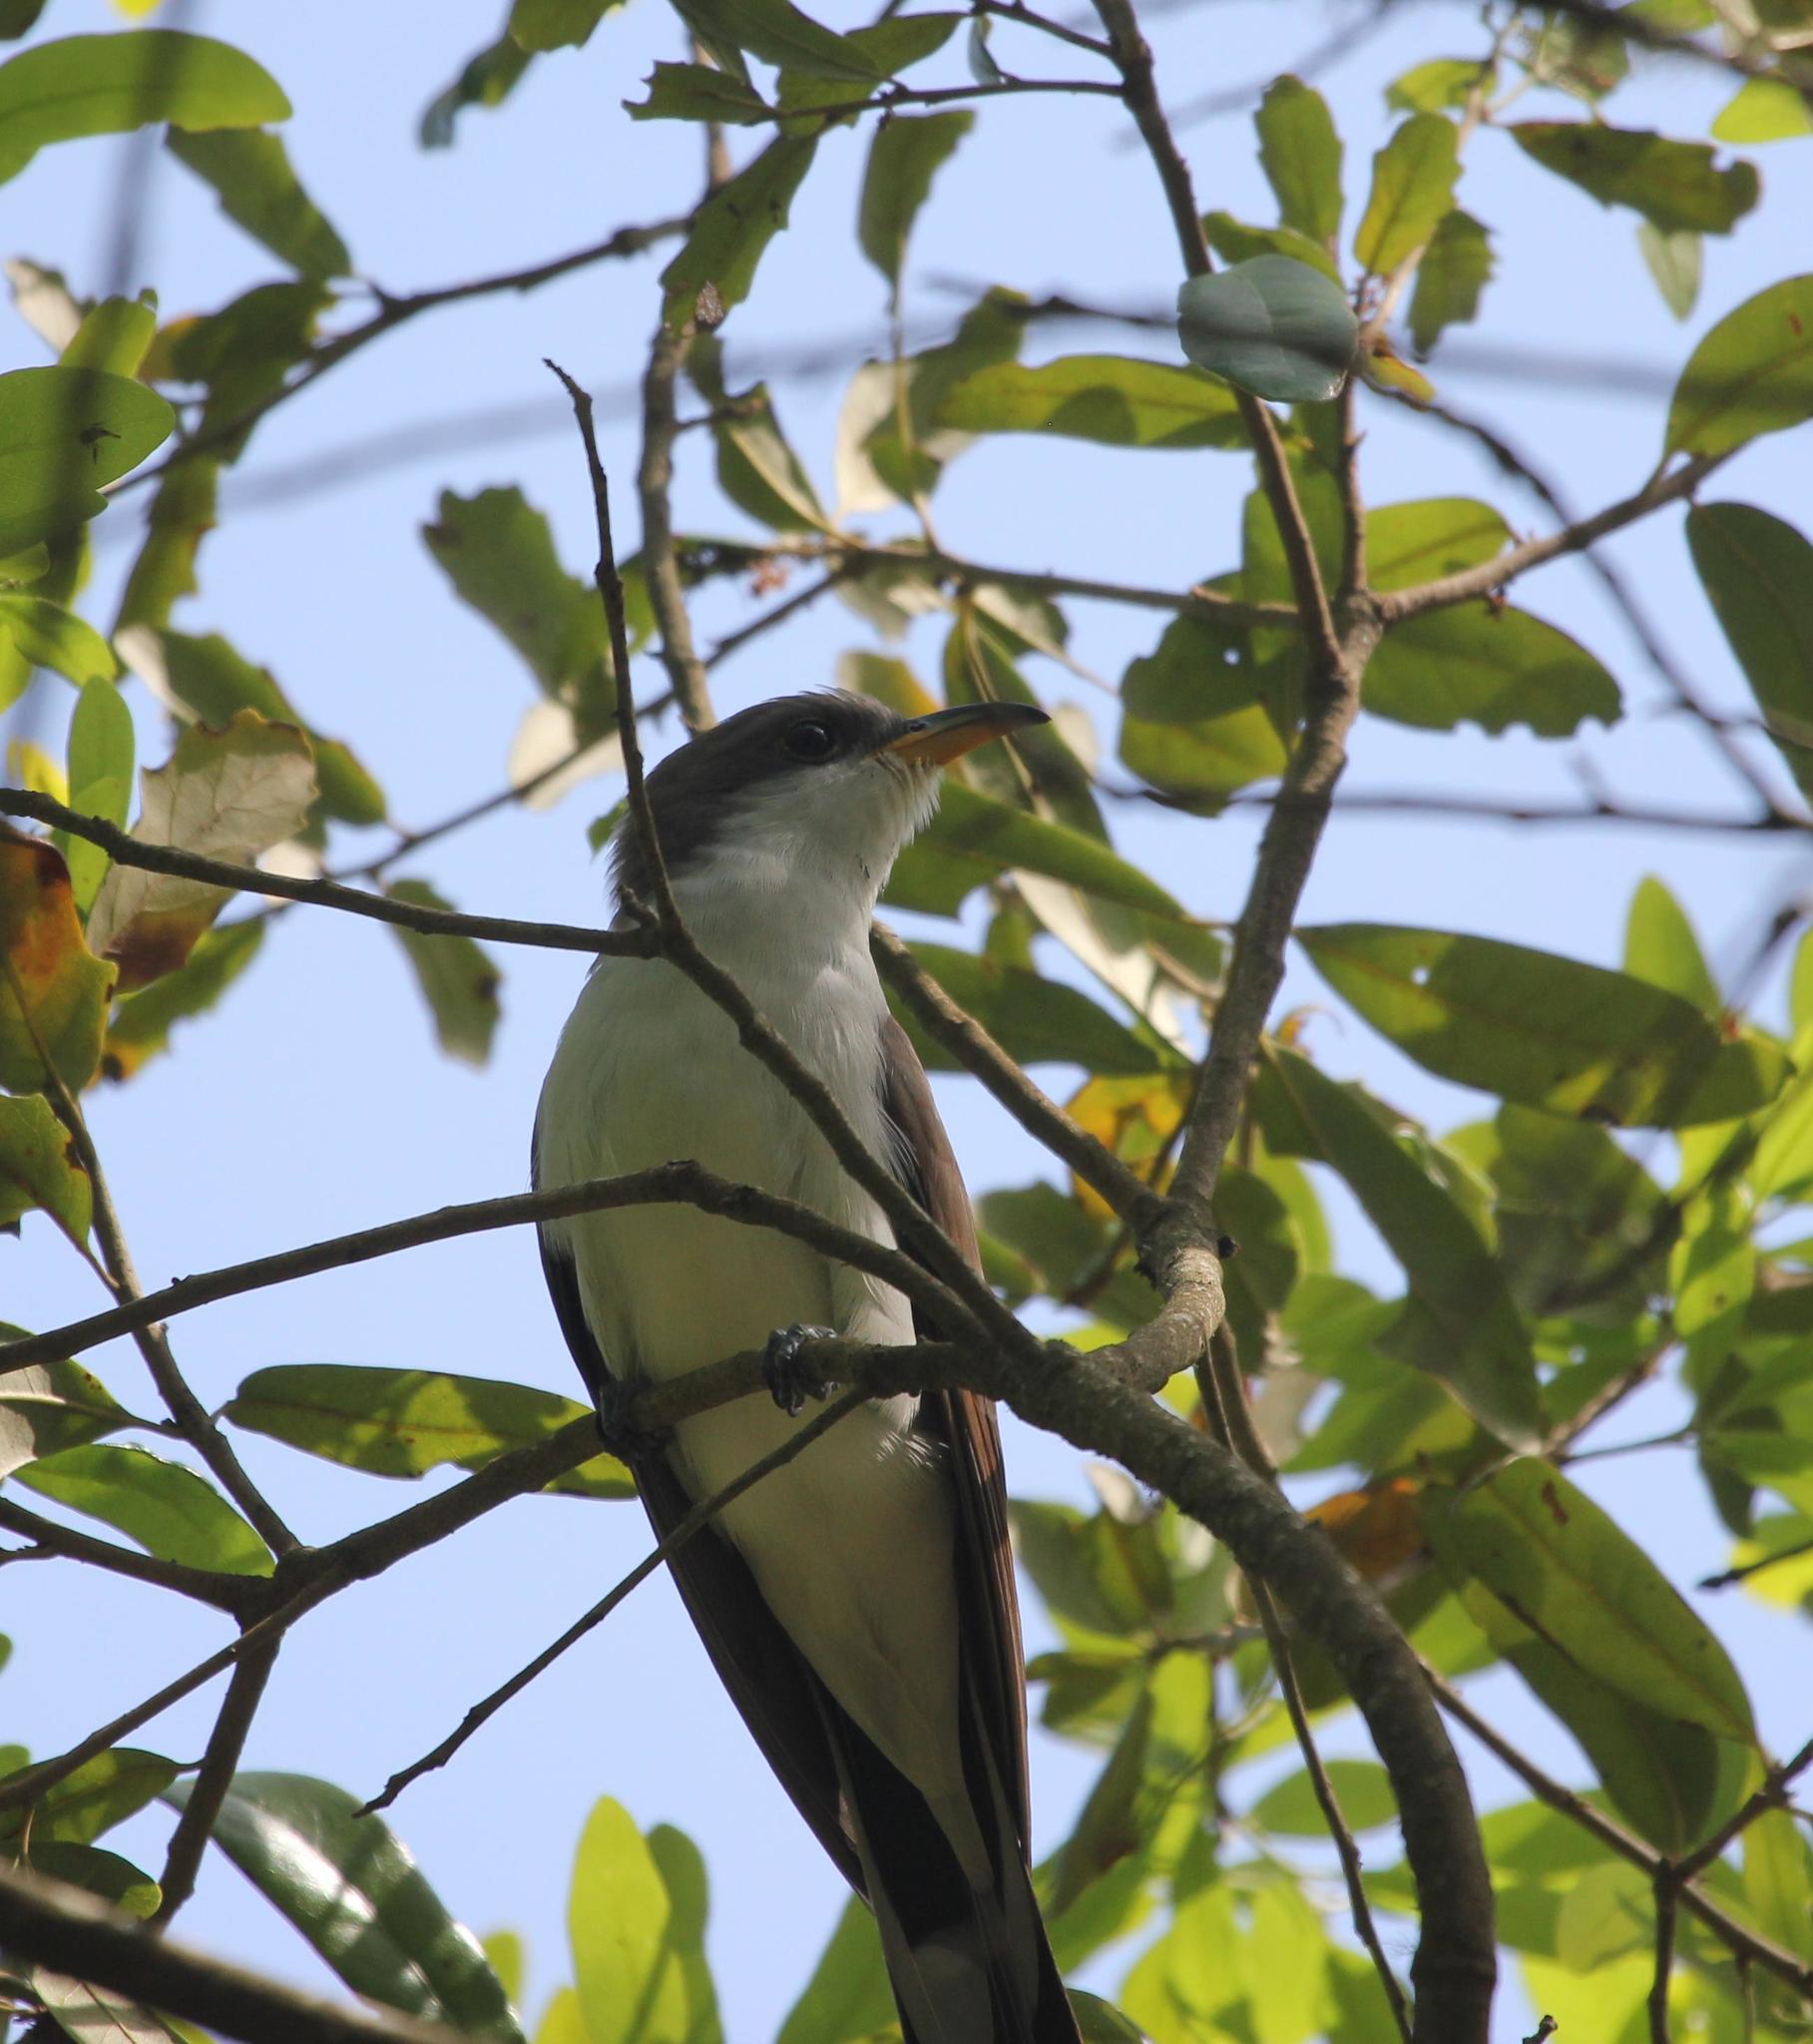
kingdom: Animalia
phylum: Chordata
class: Aves
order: Cuculiformes
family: Cuculidae
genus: Coccyzus
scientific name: Coccyzus americanus
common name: Yellow-billed cuckoo
